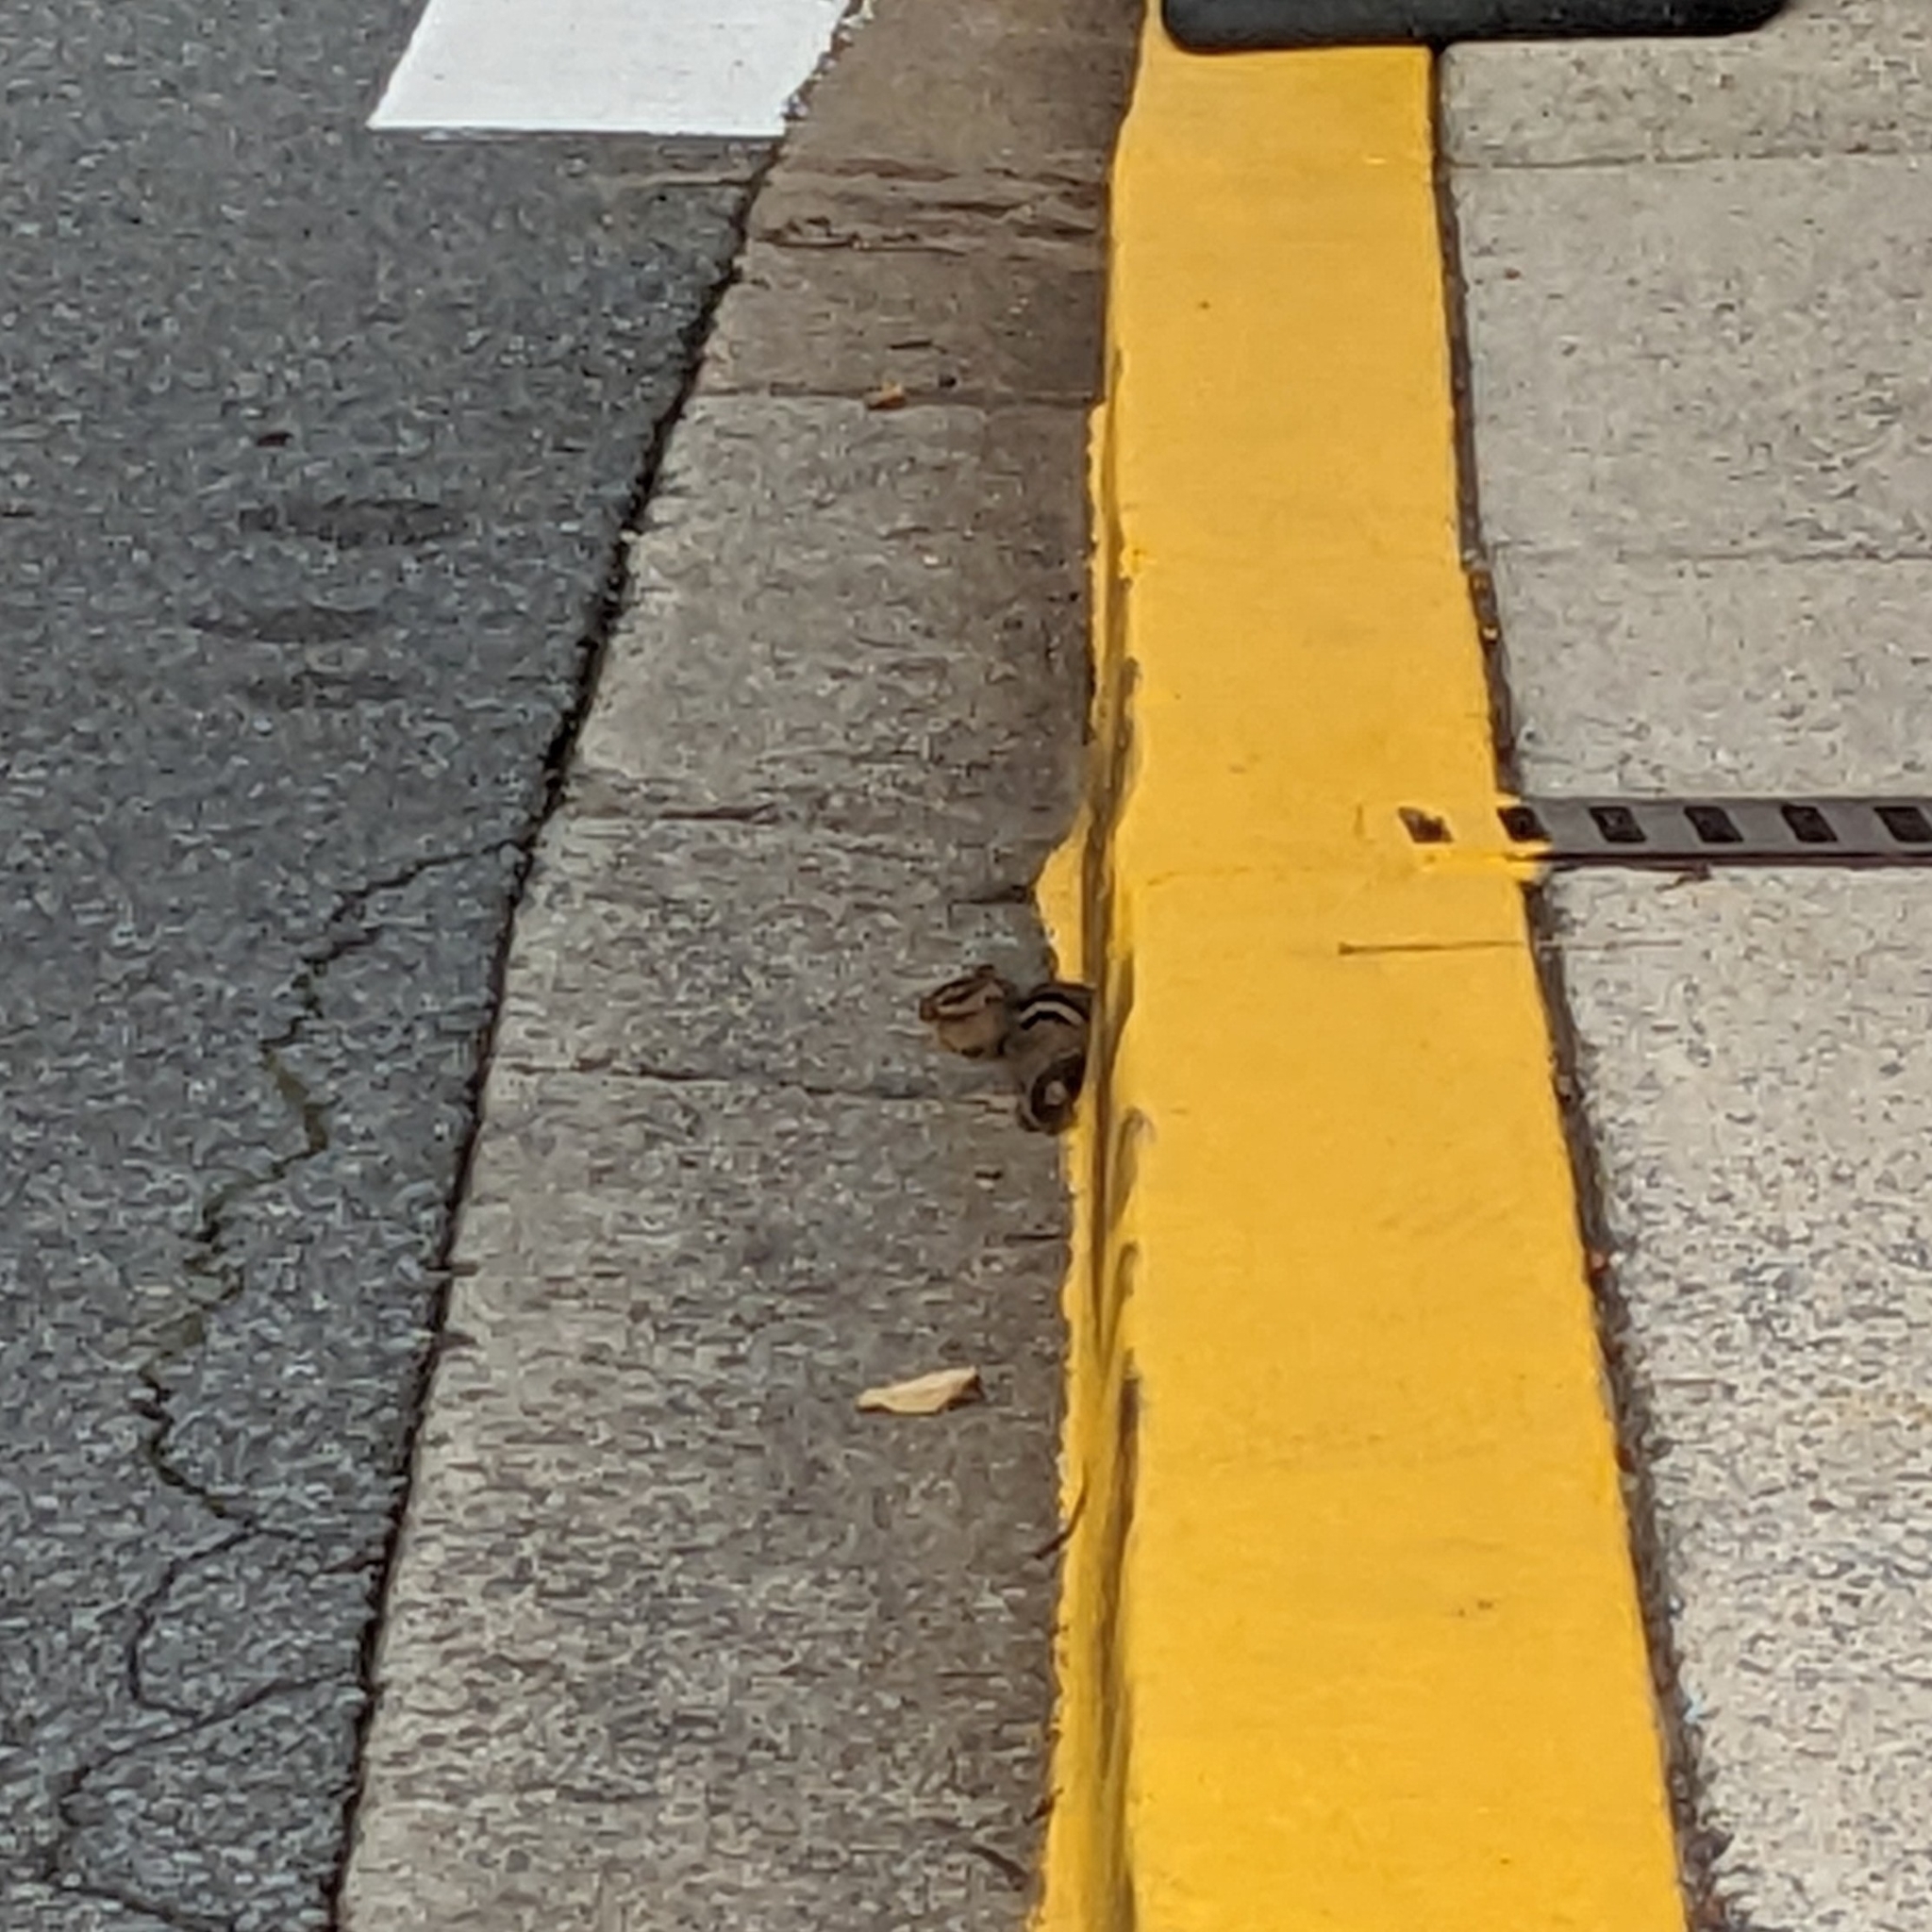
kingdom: Animalia
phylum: Chordata
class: Mammalia
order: Rodentia
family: Sciuridae
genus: Tamias
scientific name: Tamias striatus
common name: Eastern chipmunk
